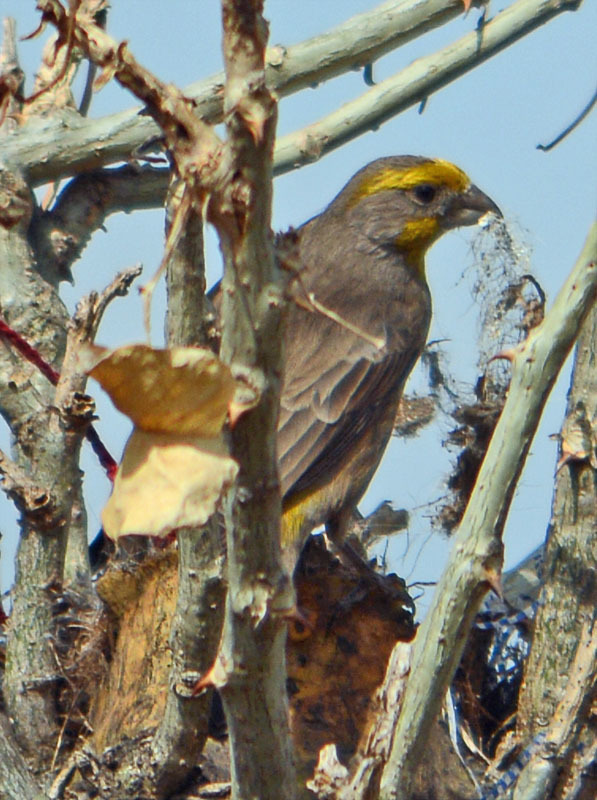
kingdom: Animalia
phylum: Chordata
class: Aves
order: Passeriformes
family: Fringillidae
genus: Haemorhous
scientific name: Haemorhous mexicanus
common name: House finch
